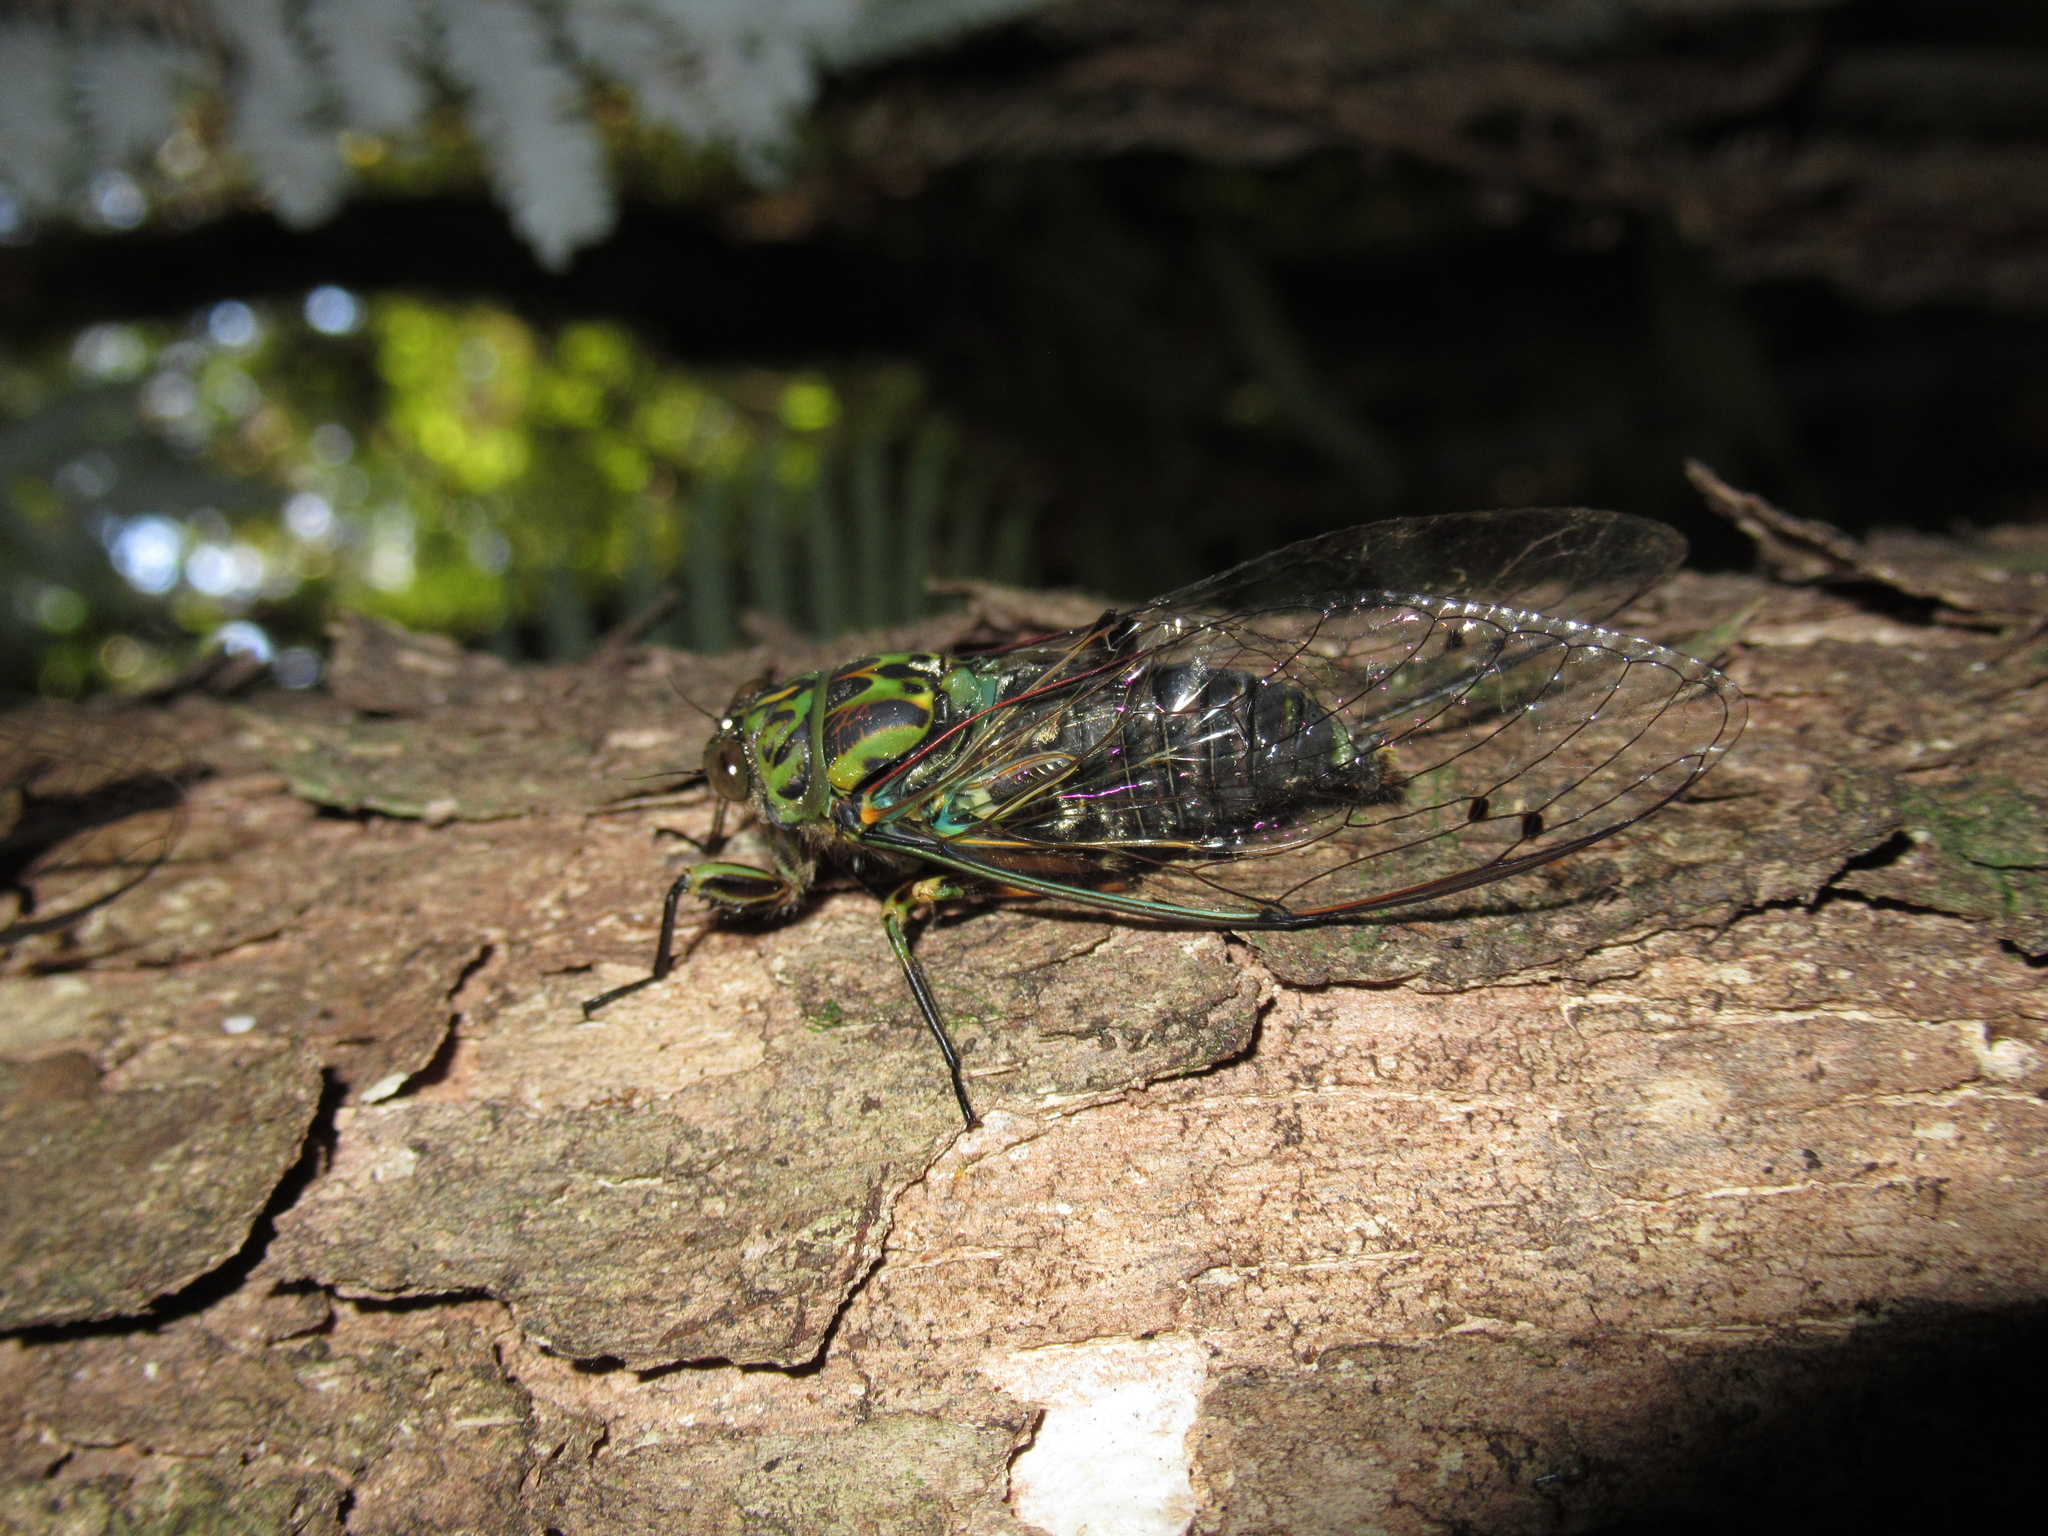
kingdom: Animalia
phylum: Arthropoda
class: Insecta
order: Hemiptera
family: Cicadidae
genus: Amphipsalta
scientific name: Amphipsalta zelandica
